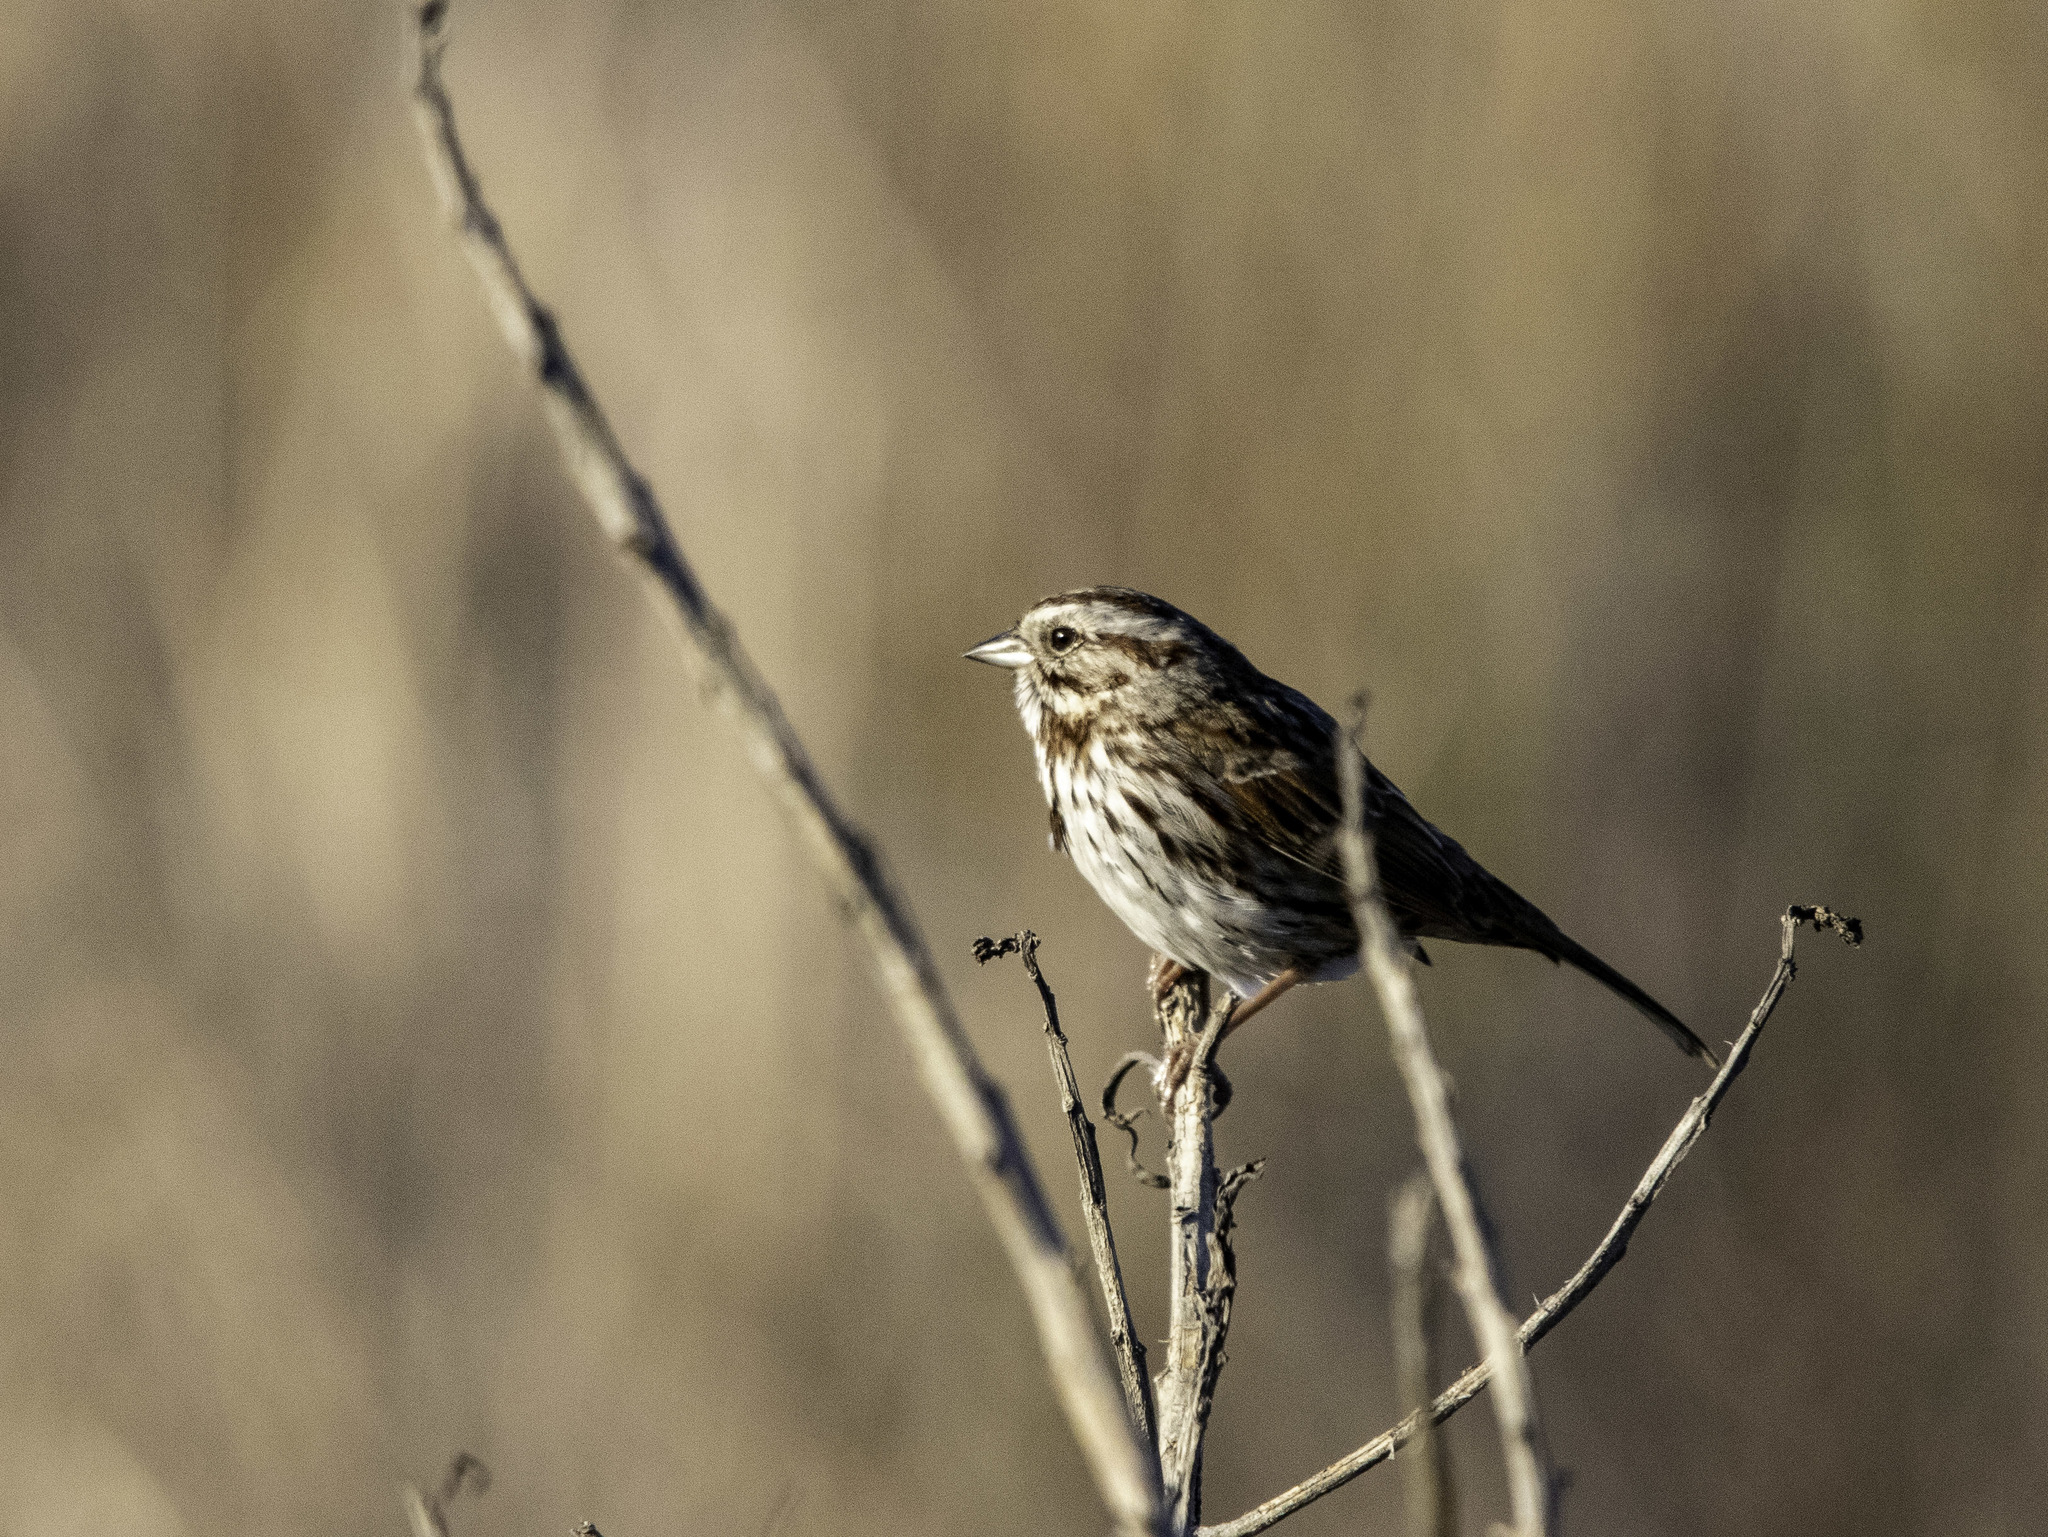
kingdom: Animalia
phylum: Chordata
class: Aves
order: Passeriformes
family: Passerellidae
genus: Melospiza
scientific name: Melospiza melodia
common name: Song sparrow
